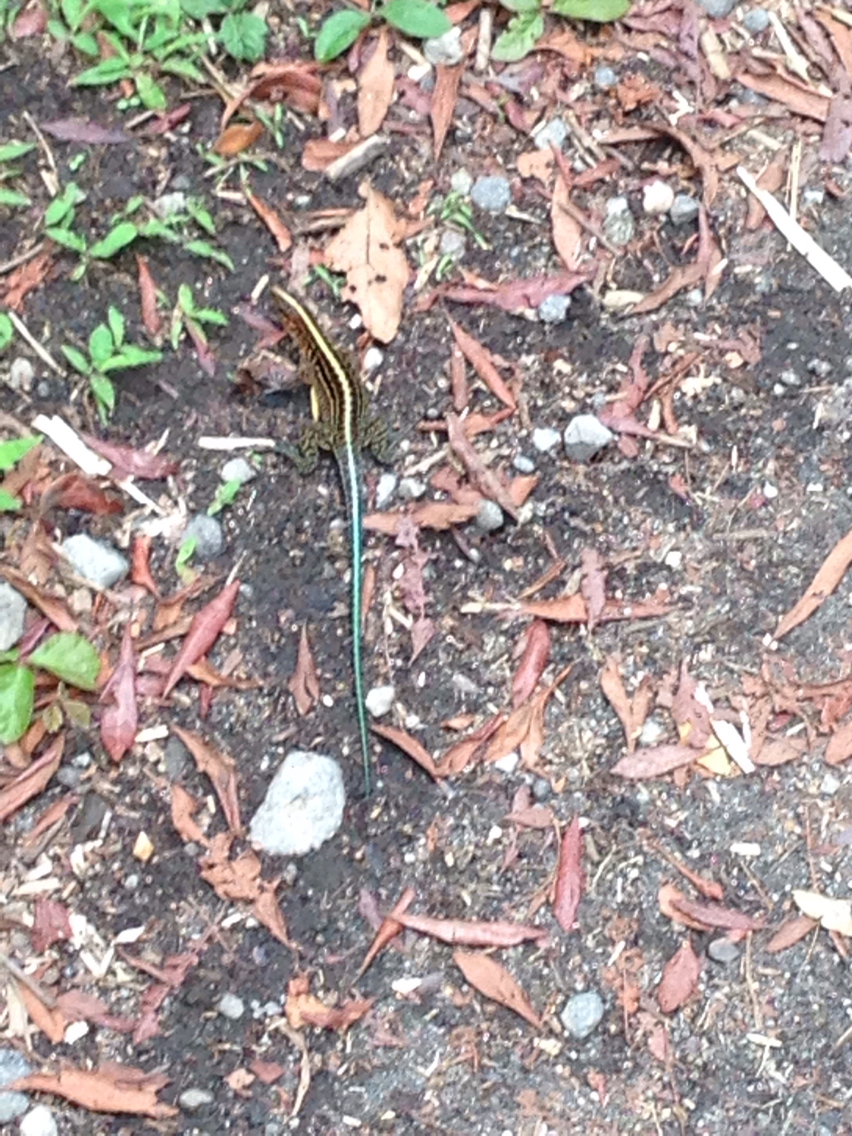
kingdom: Animalia
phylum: Chordata
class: Squamata
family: Teiidae
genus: Holcosus
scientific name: Holcosus festivus
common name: Middle american ameiva
